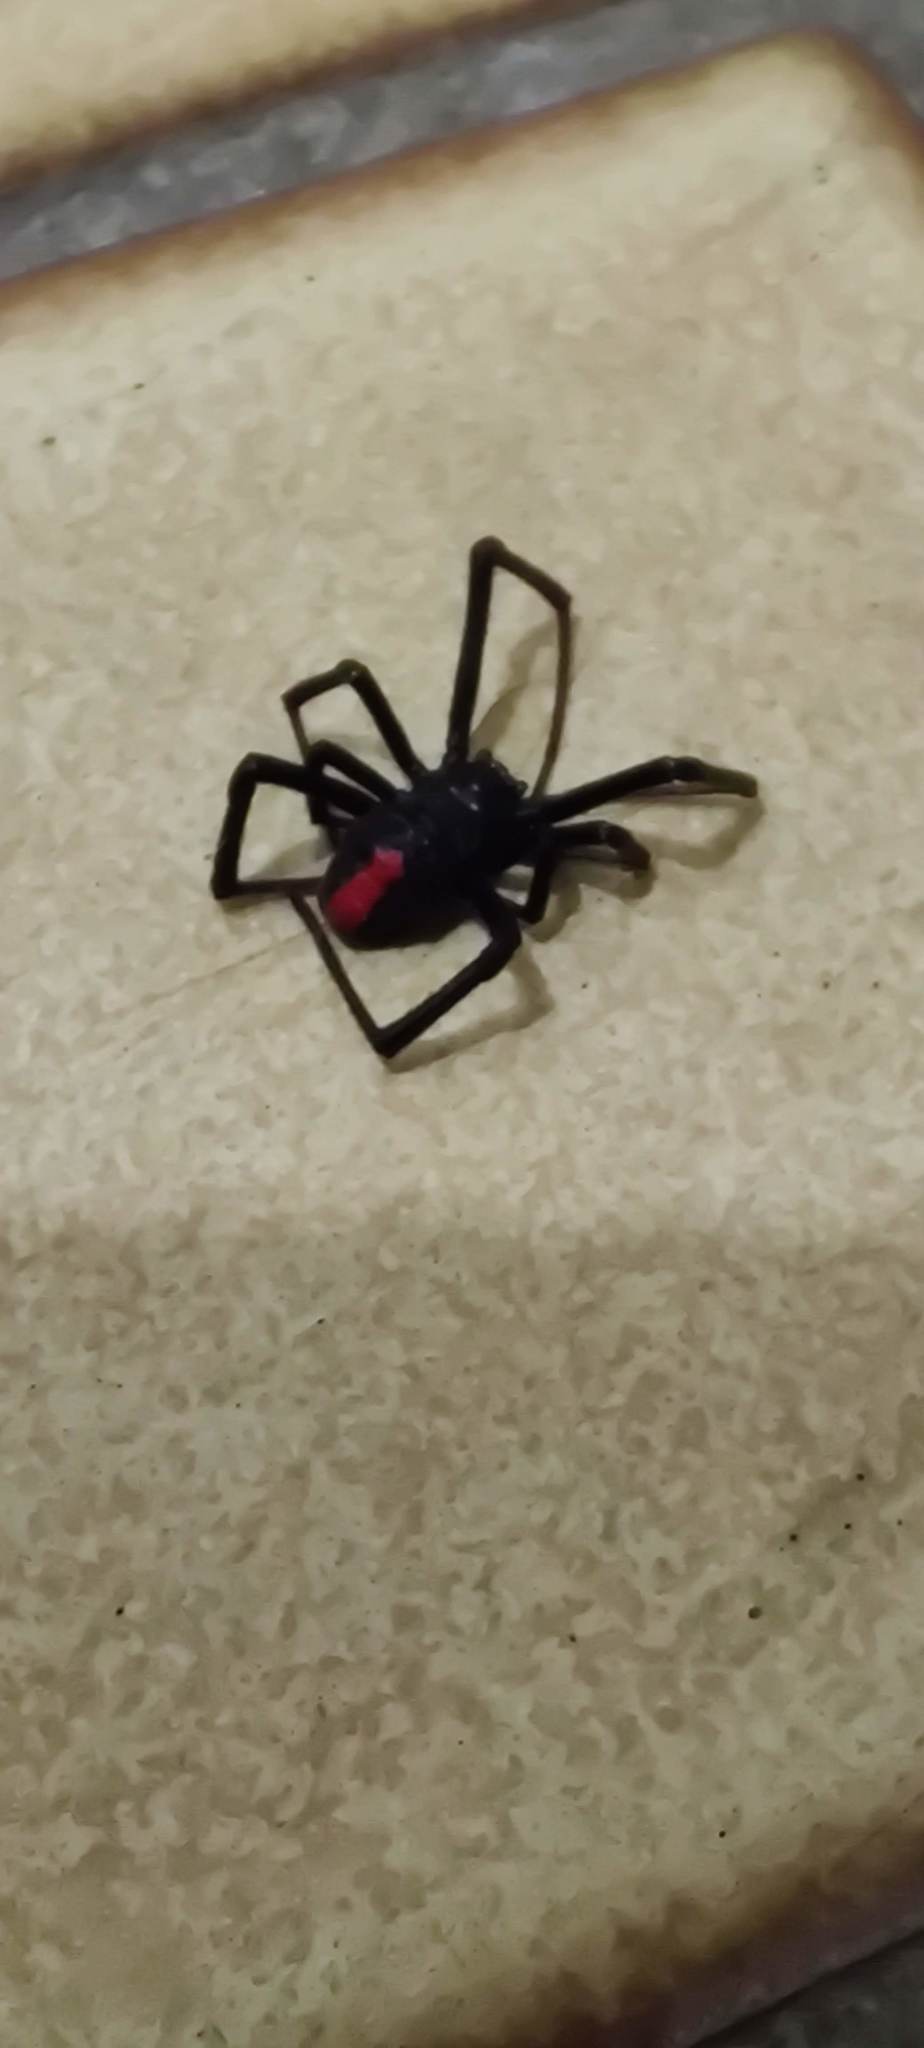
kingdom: Animalia
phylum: Arthropoda
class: Arachnida
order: Araneae
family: Theridiidae
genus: Latrodectus
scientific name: Latrodectus hasselti
